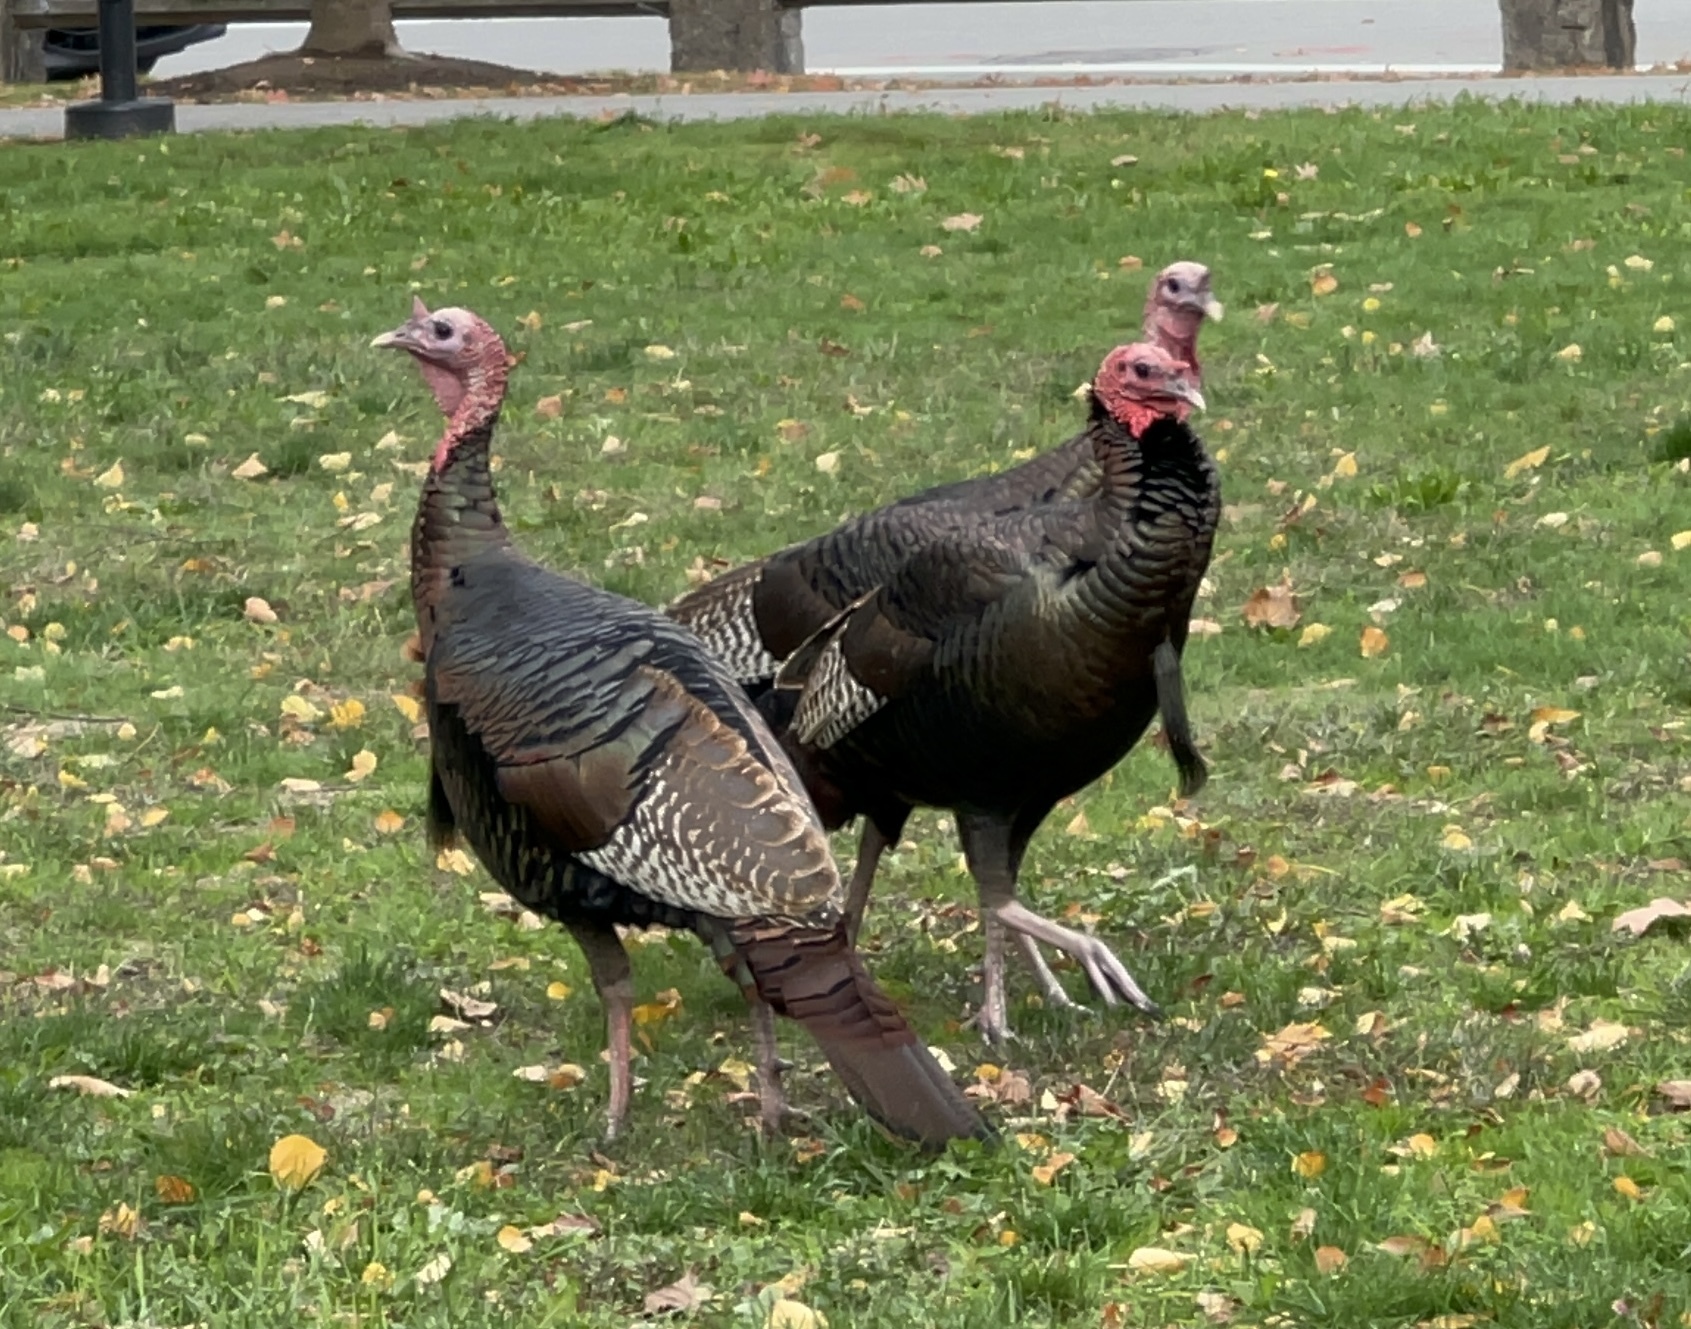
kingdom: Animalia
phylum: Chordata
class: Aves
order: Galliformes
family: Phasianidae
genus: Meleagris
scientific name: Meleagris gallopavo
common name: Wild turkey
